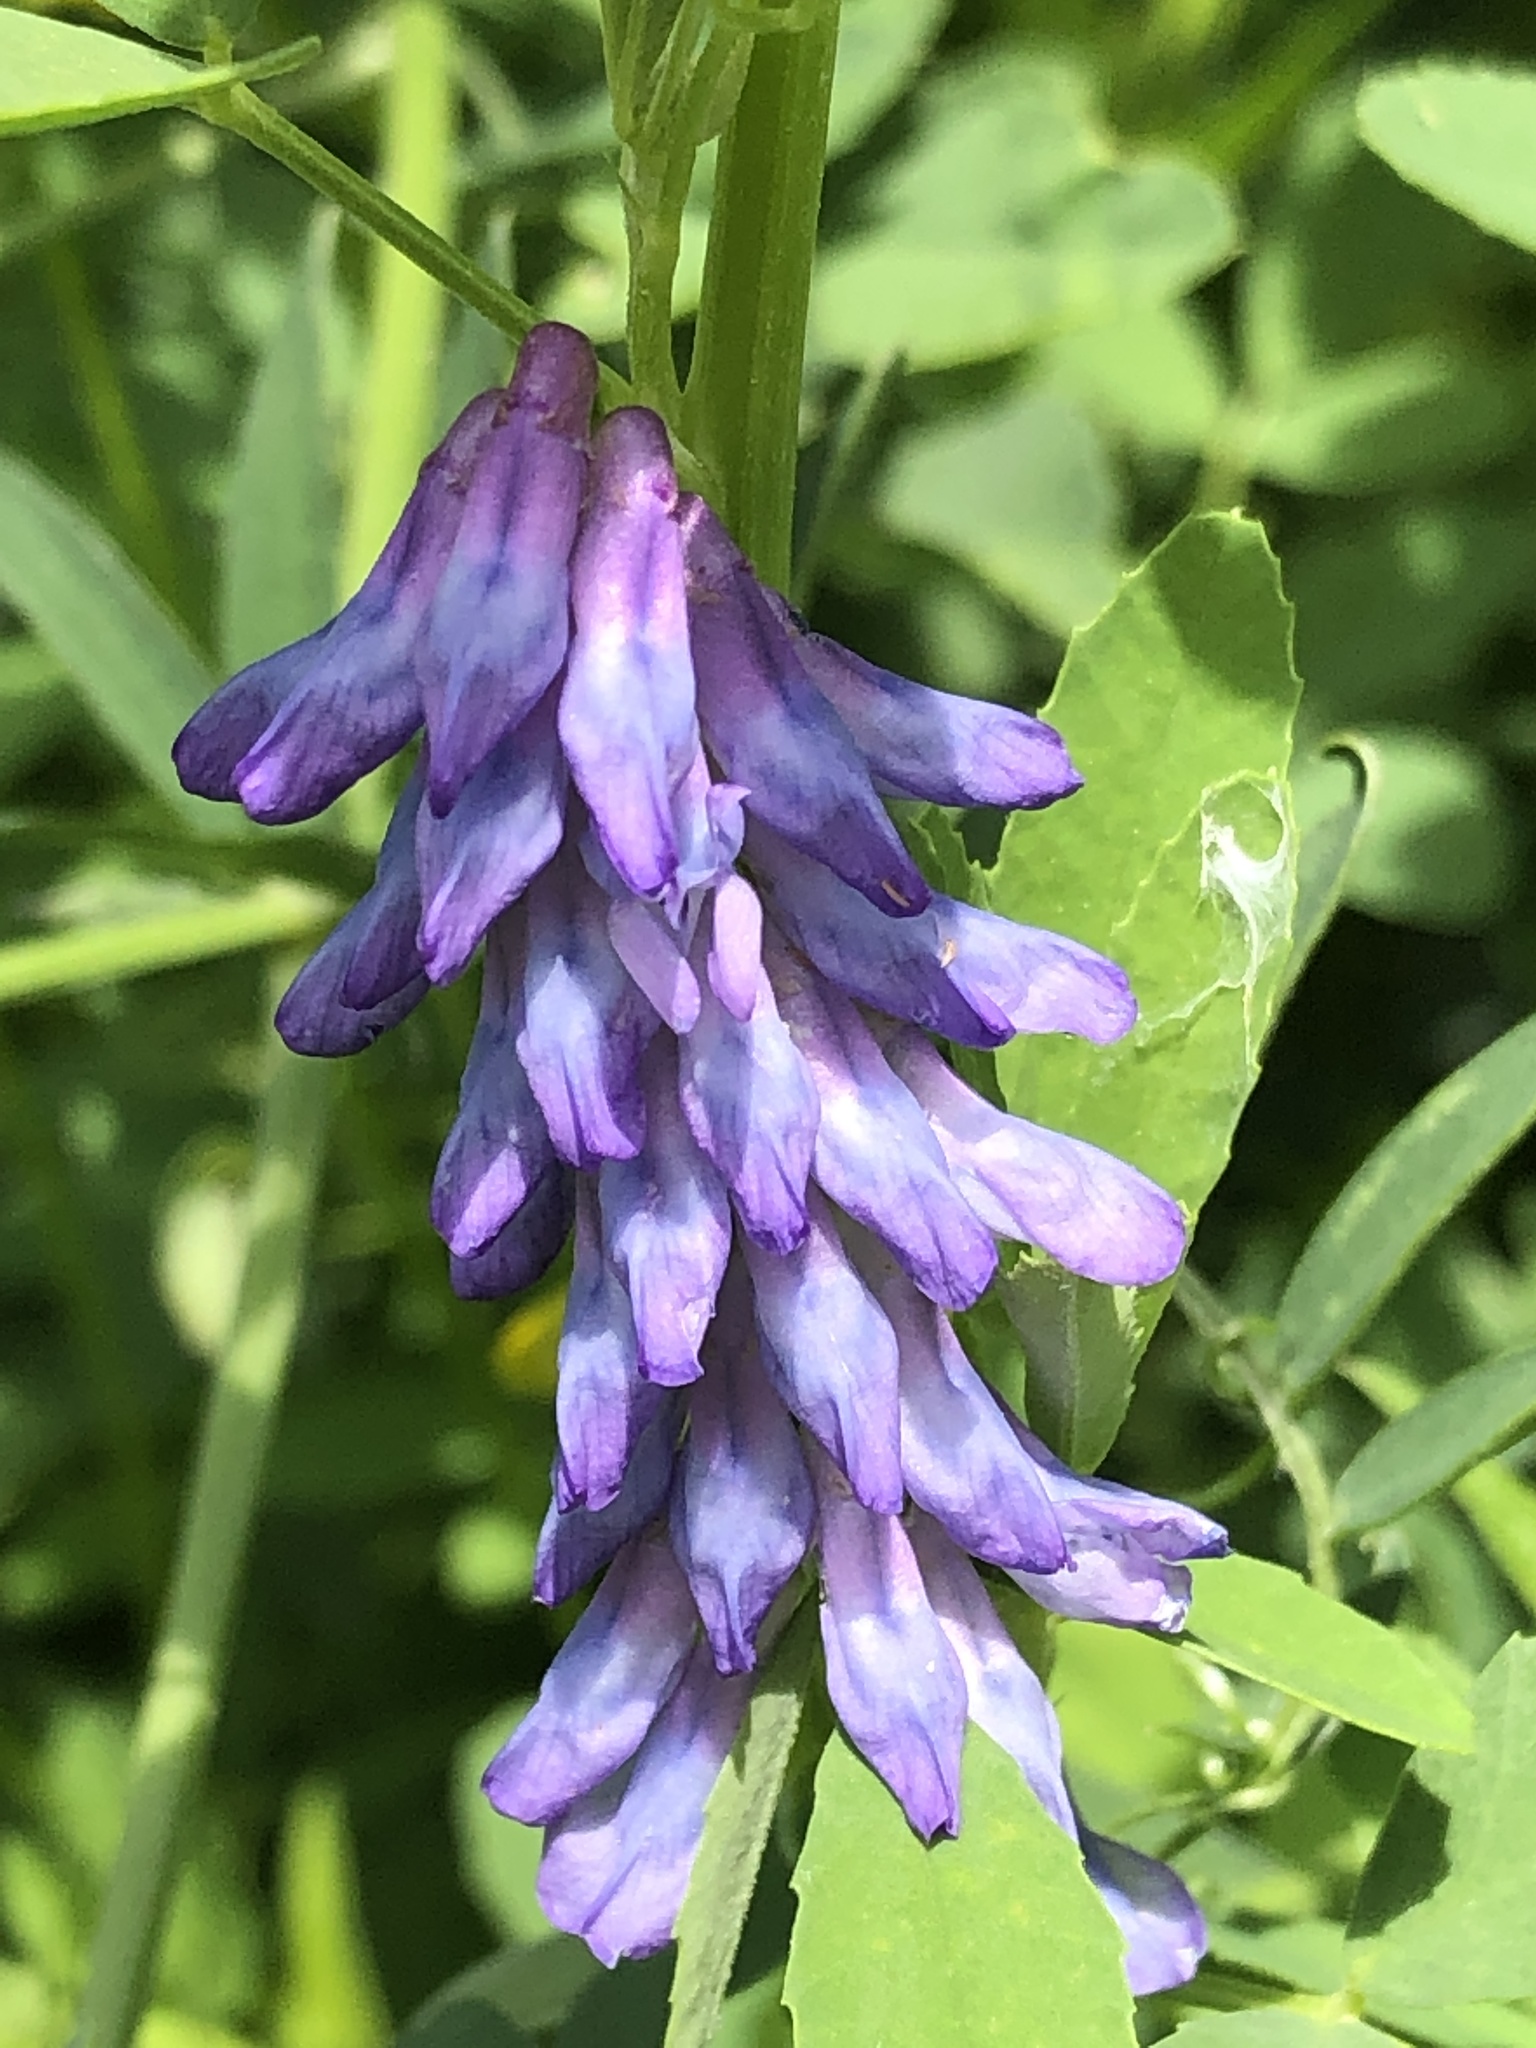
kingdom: Plantae
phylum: Tracheophyta
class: Magnoliopsida
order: Fabales
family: Fabaceae
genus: Vicia
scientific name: Vicia cracca
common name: Bird vetch
